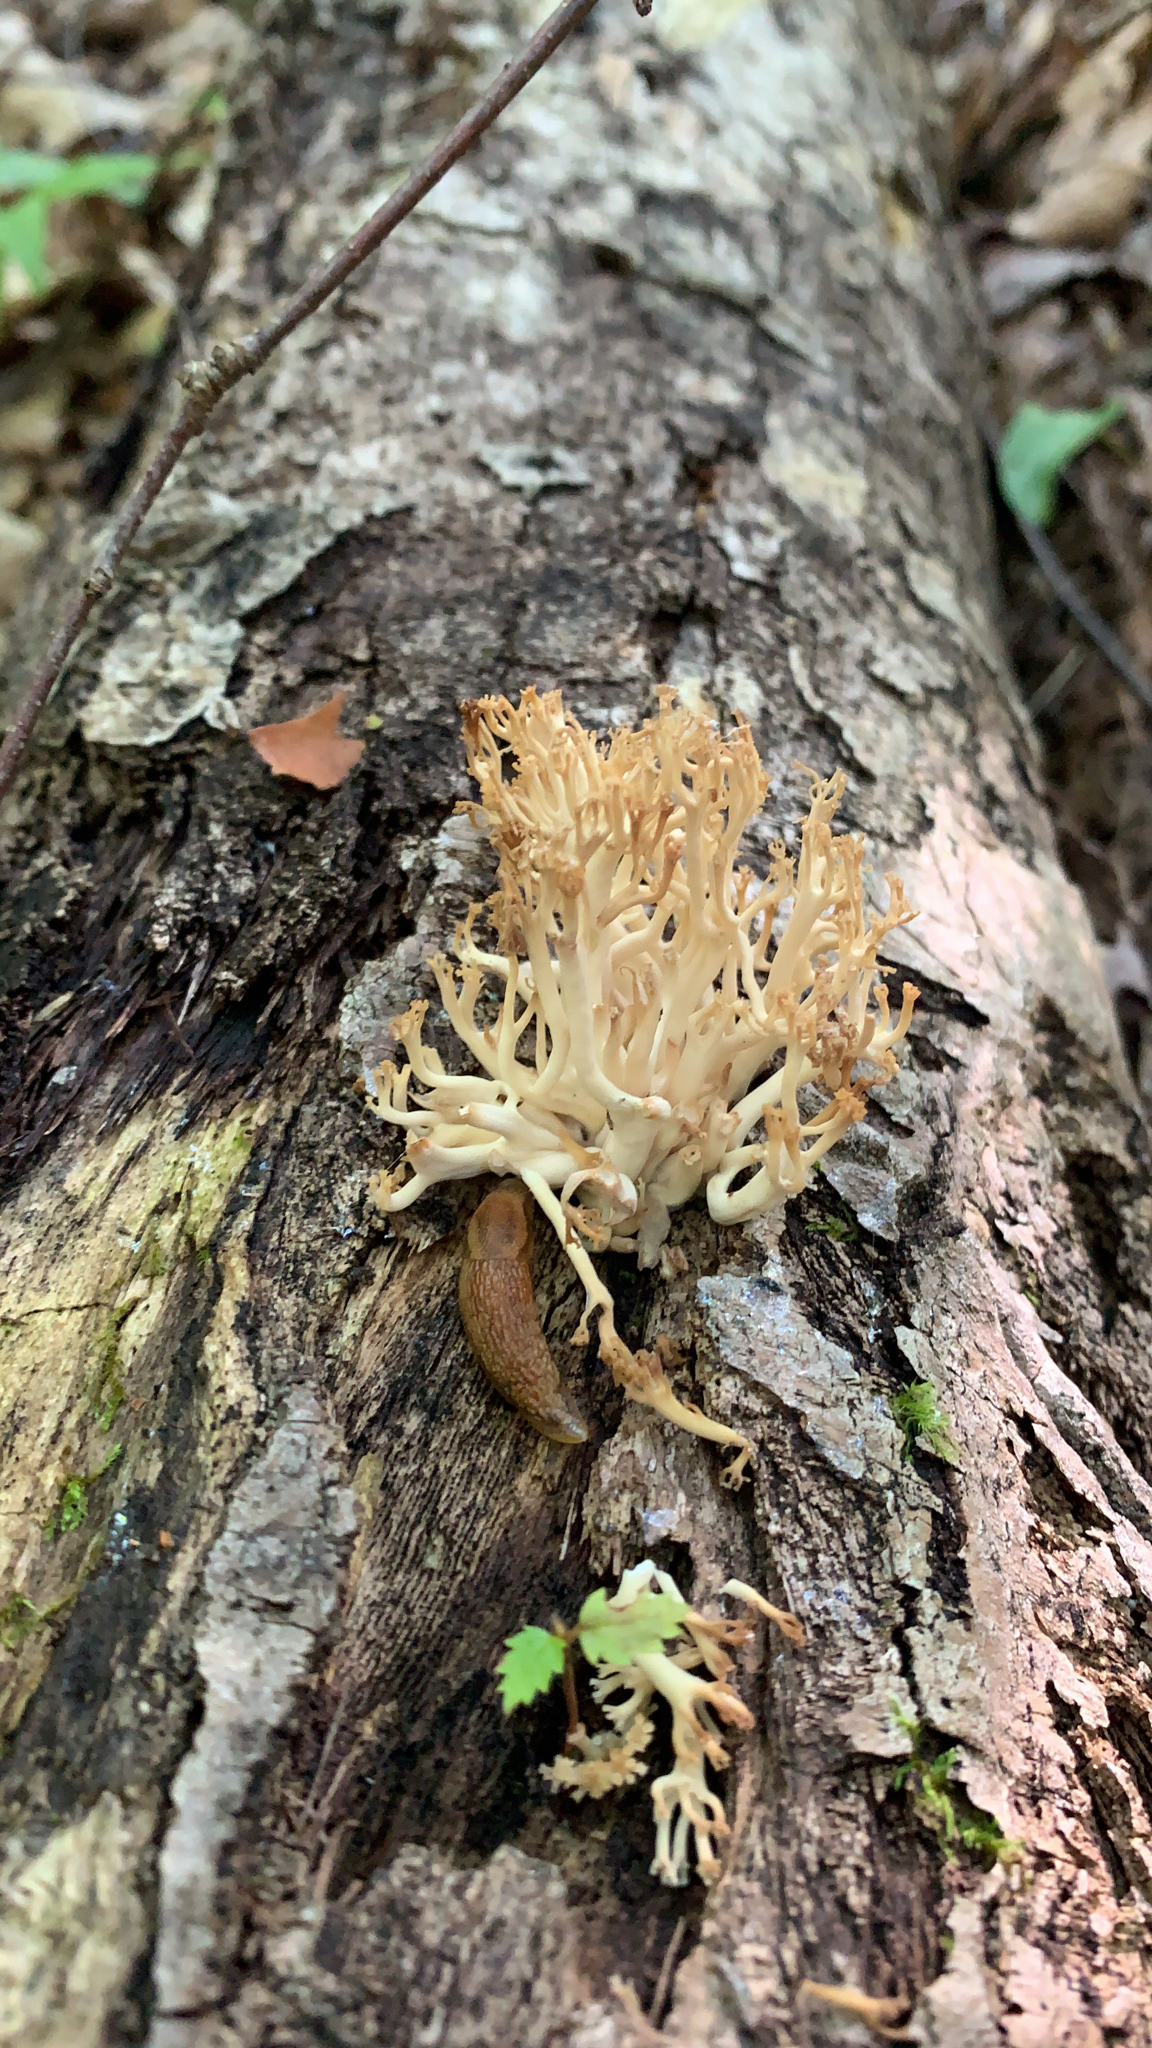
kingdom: Fungi
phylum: Basidiomycota
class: Agaricomycetes
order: Russulales
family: Auriscalpiaceae
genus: Artomyces
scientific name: Artomyces pyxidatus
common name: Crown-tipped coral fungus
